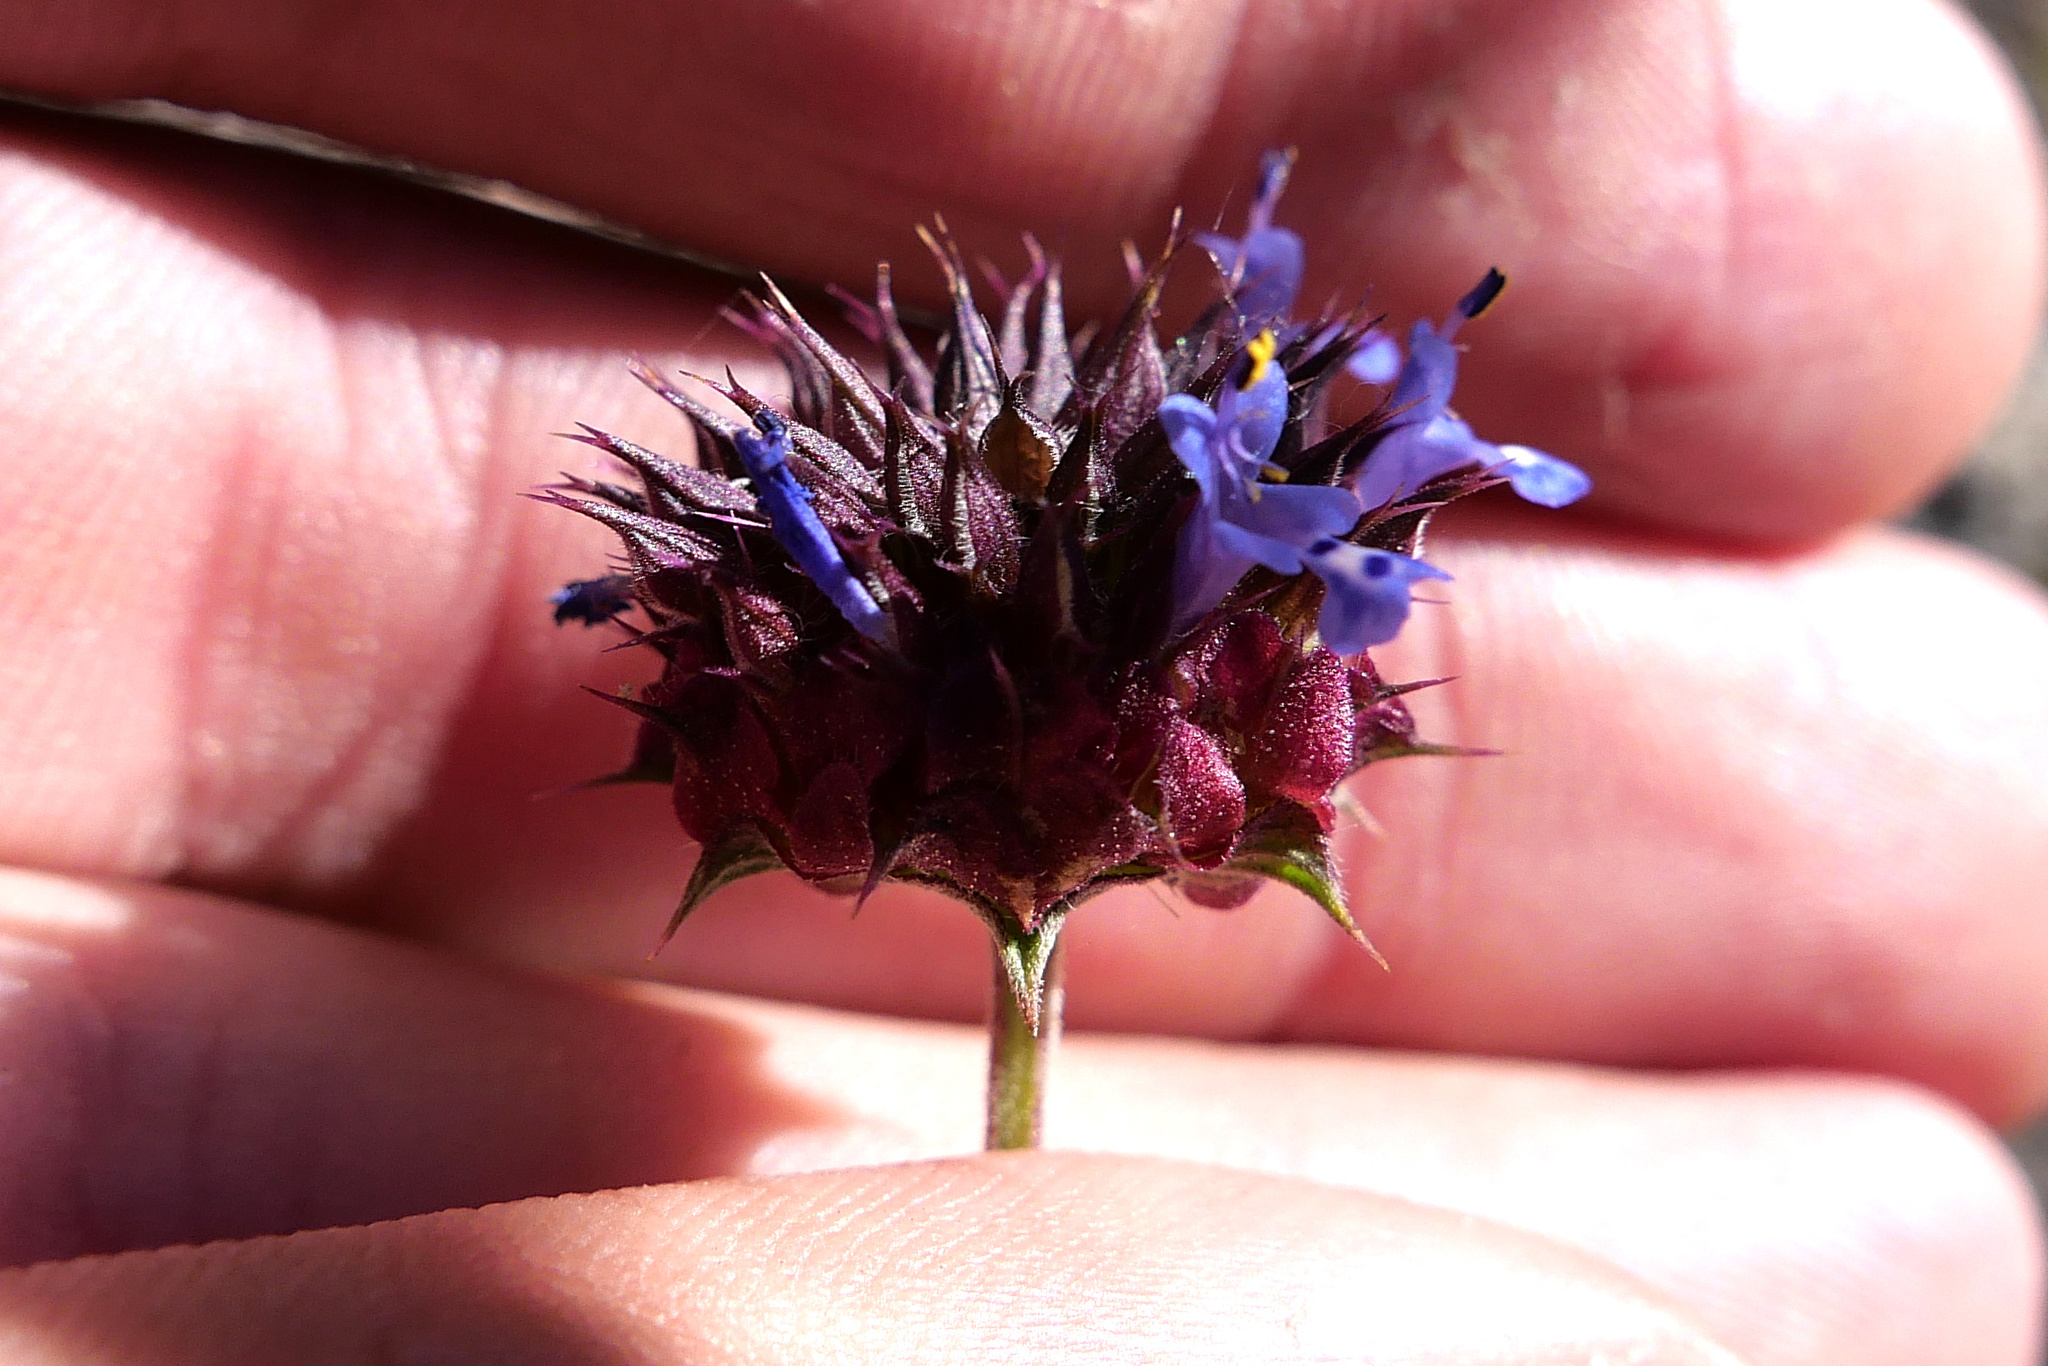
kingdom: Plantae
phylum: Tracheophyta
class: Magnoliopsida
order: Lamiales
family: Lamiaceae
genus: Salvia
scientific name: Salvia columbariae
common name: Chia
